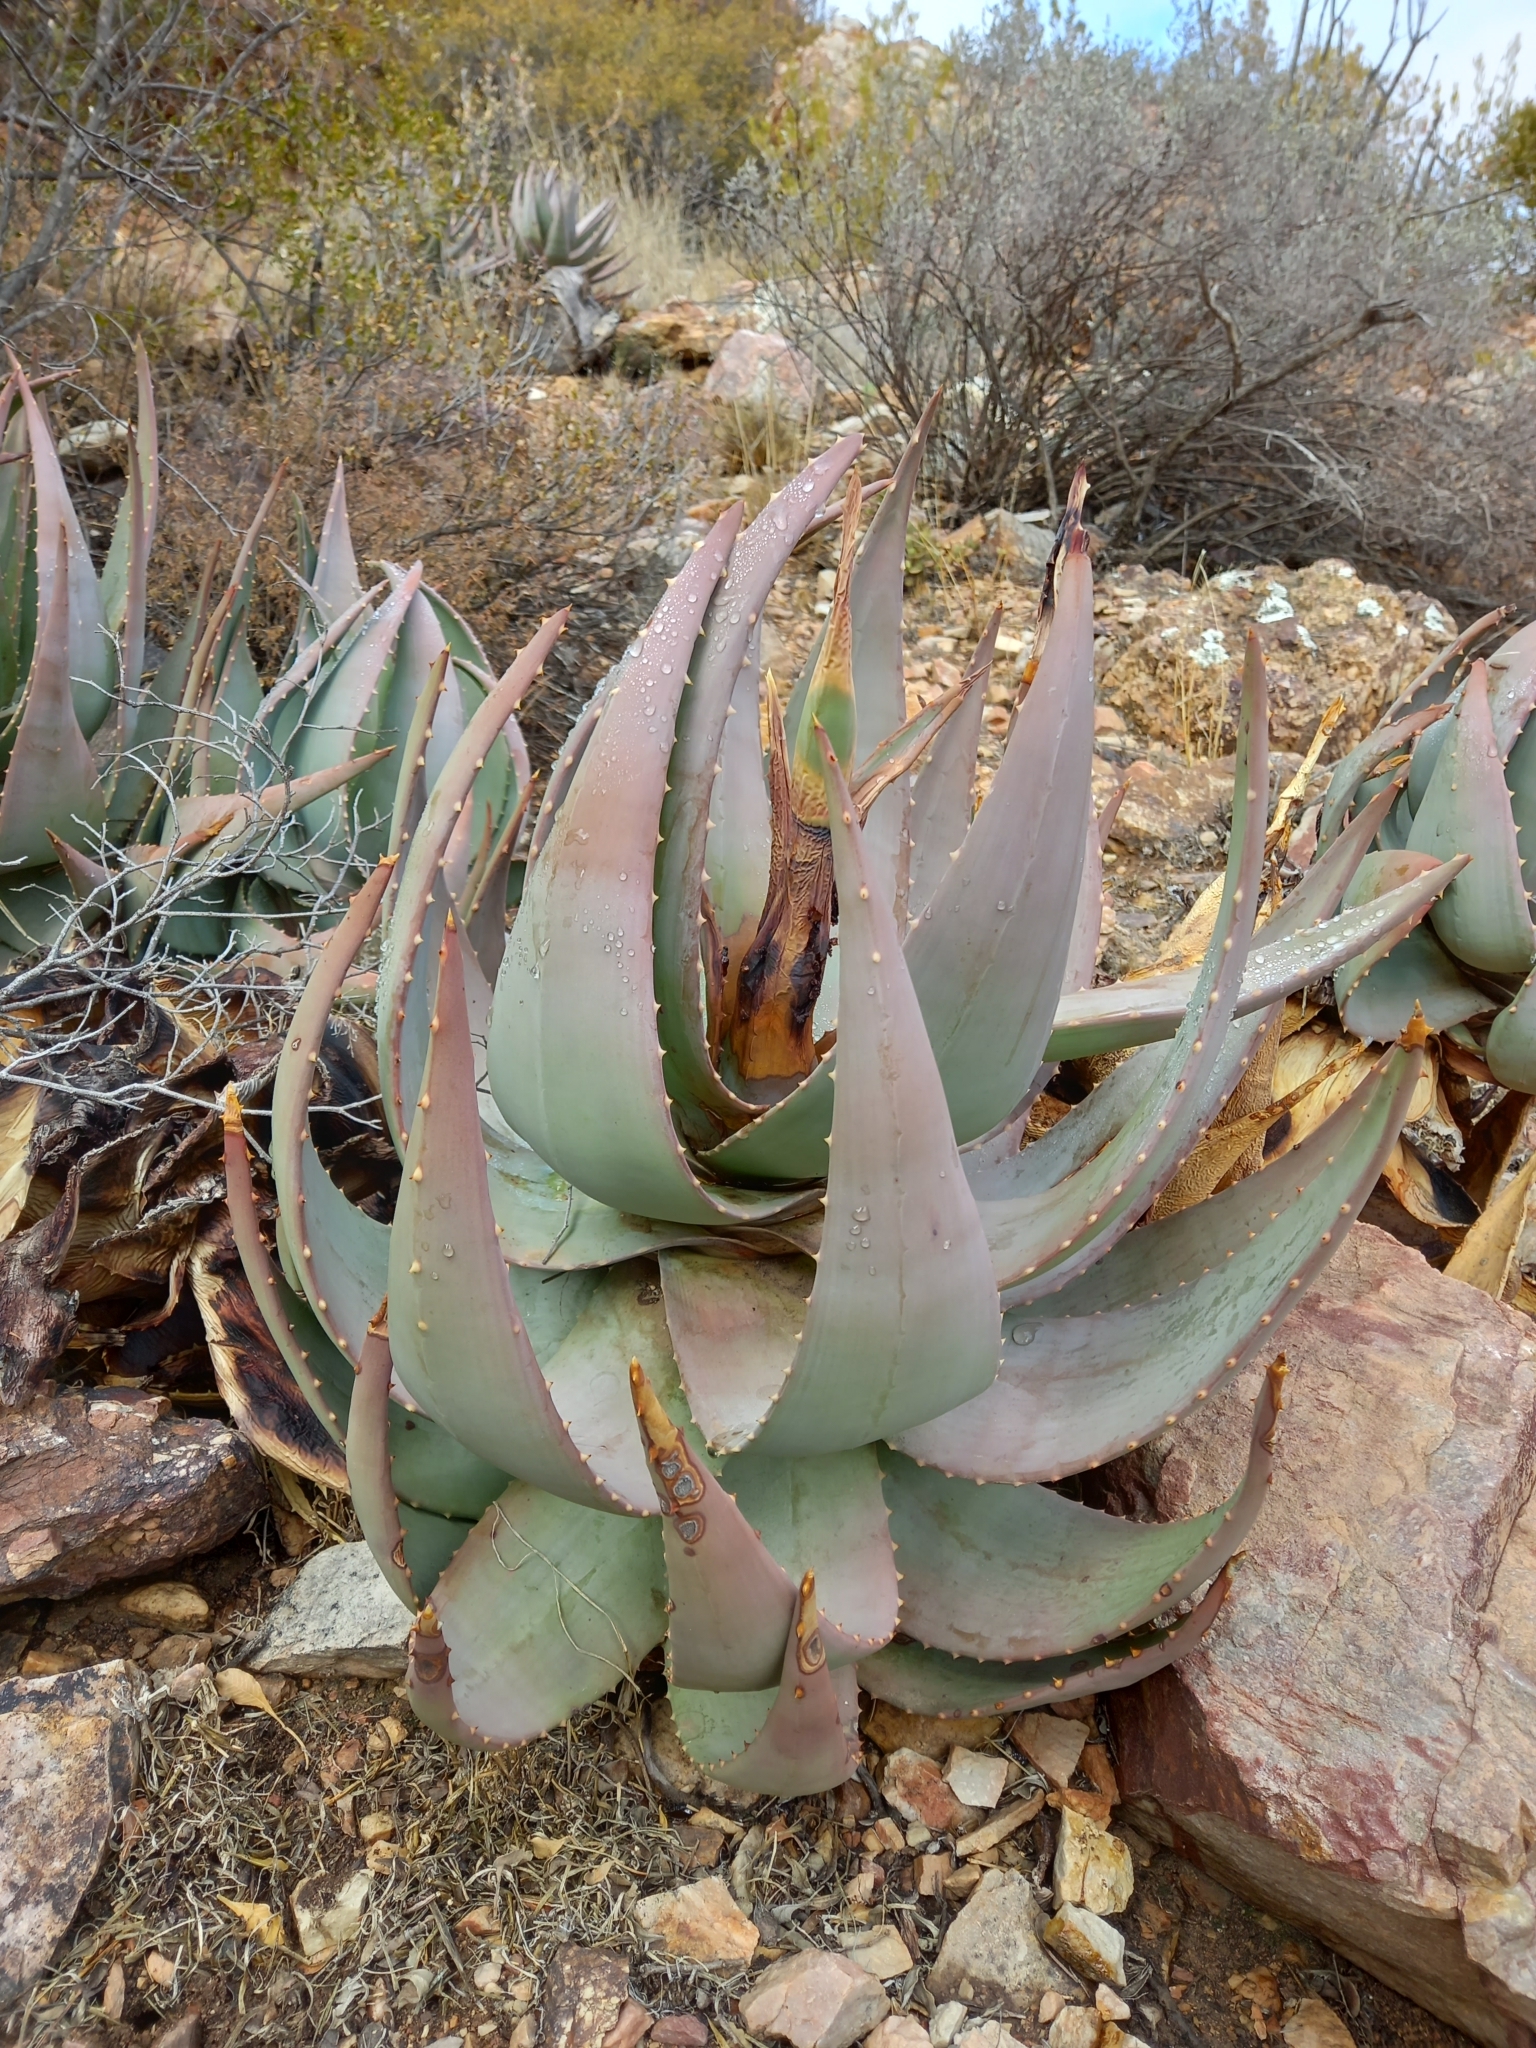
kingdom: Plantae
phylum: Tracheophyta
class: Liliopsida
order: Asparagales
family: Asphodelaceae
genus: Aloe
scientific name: Aloe comptonii
